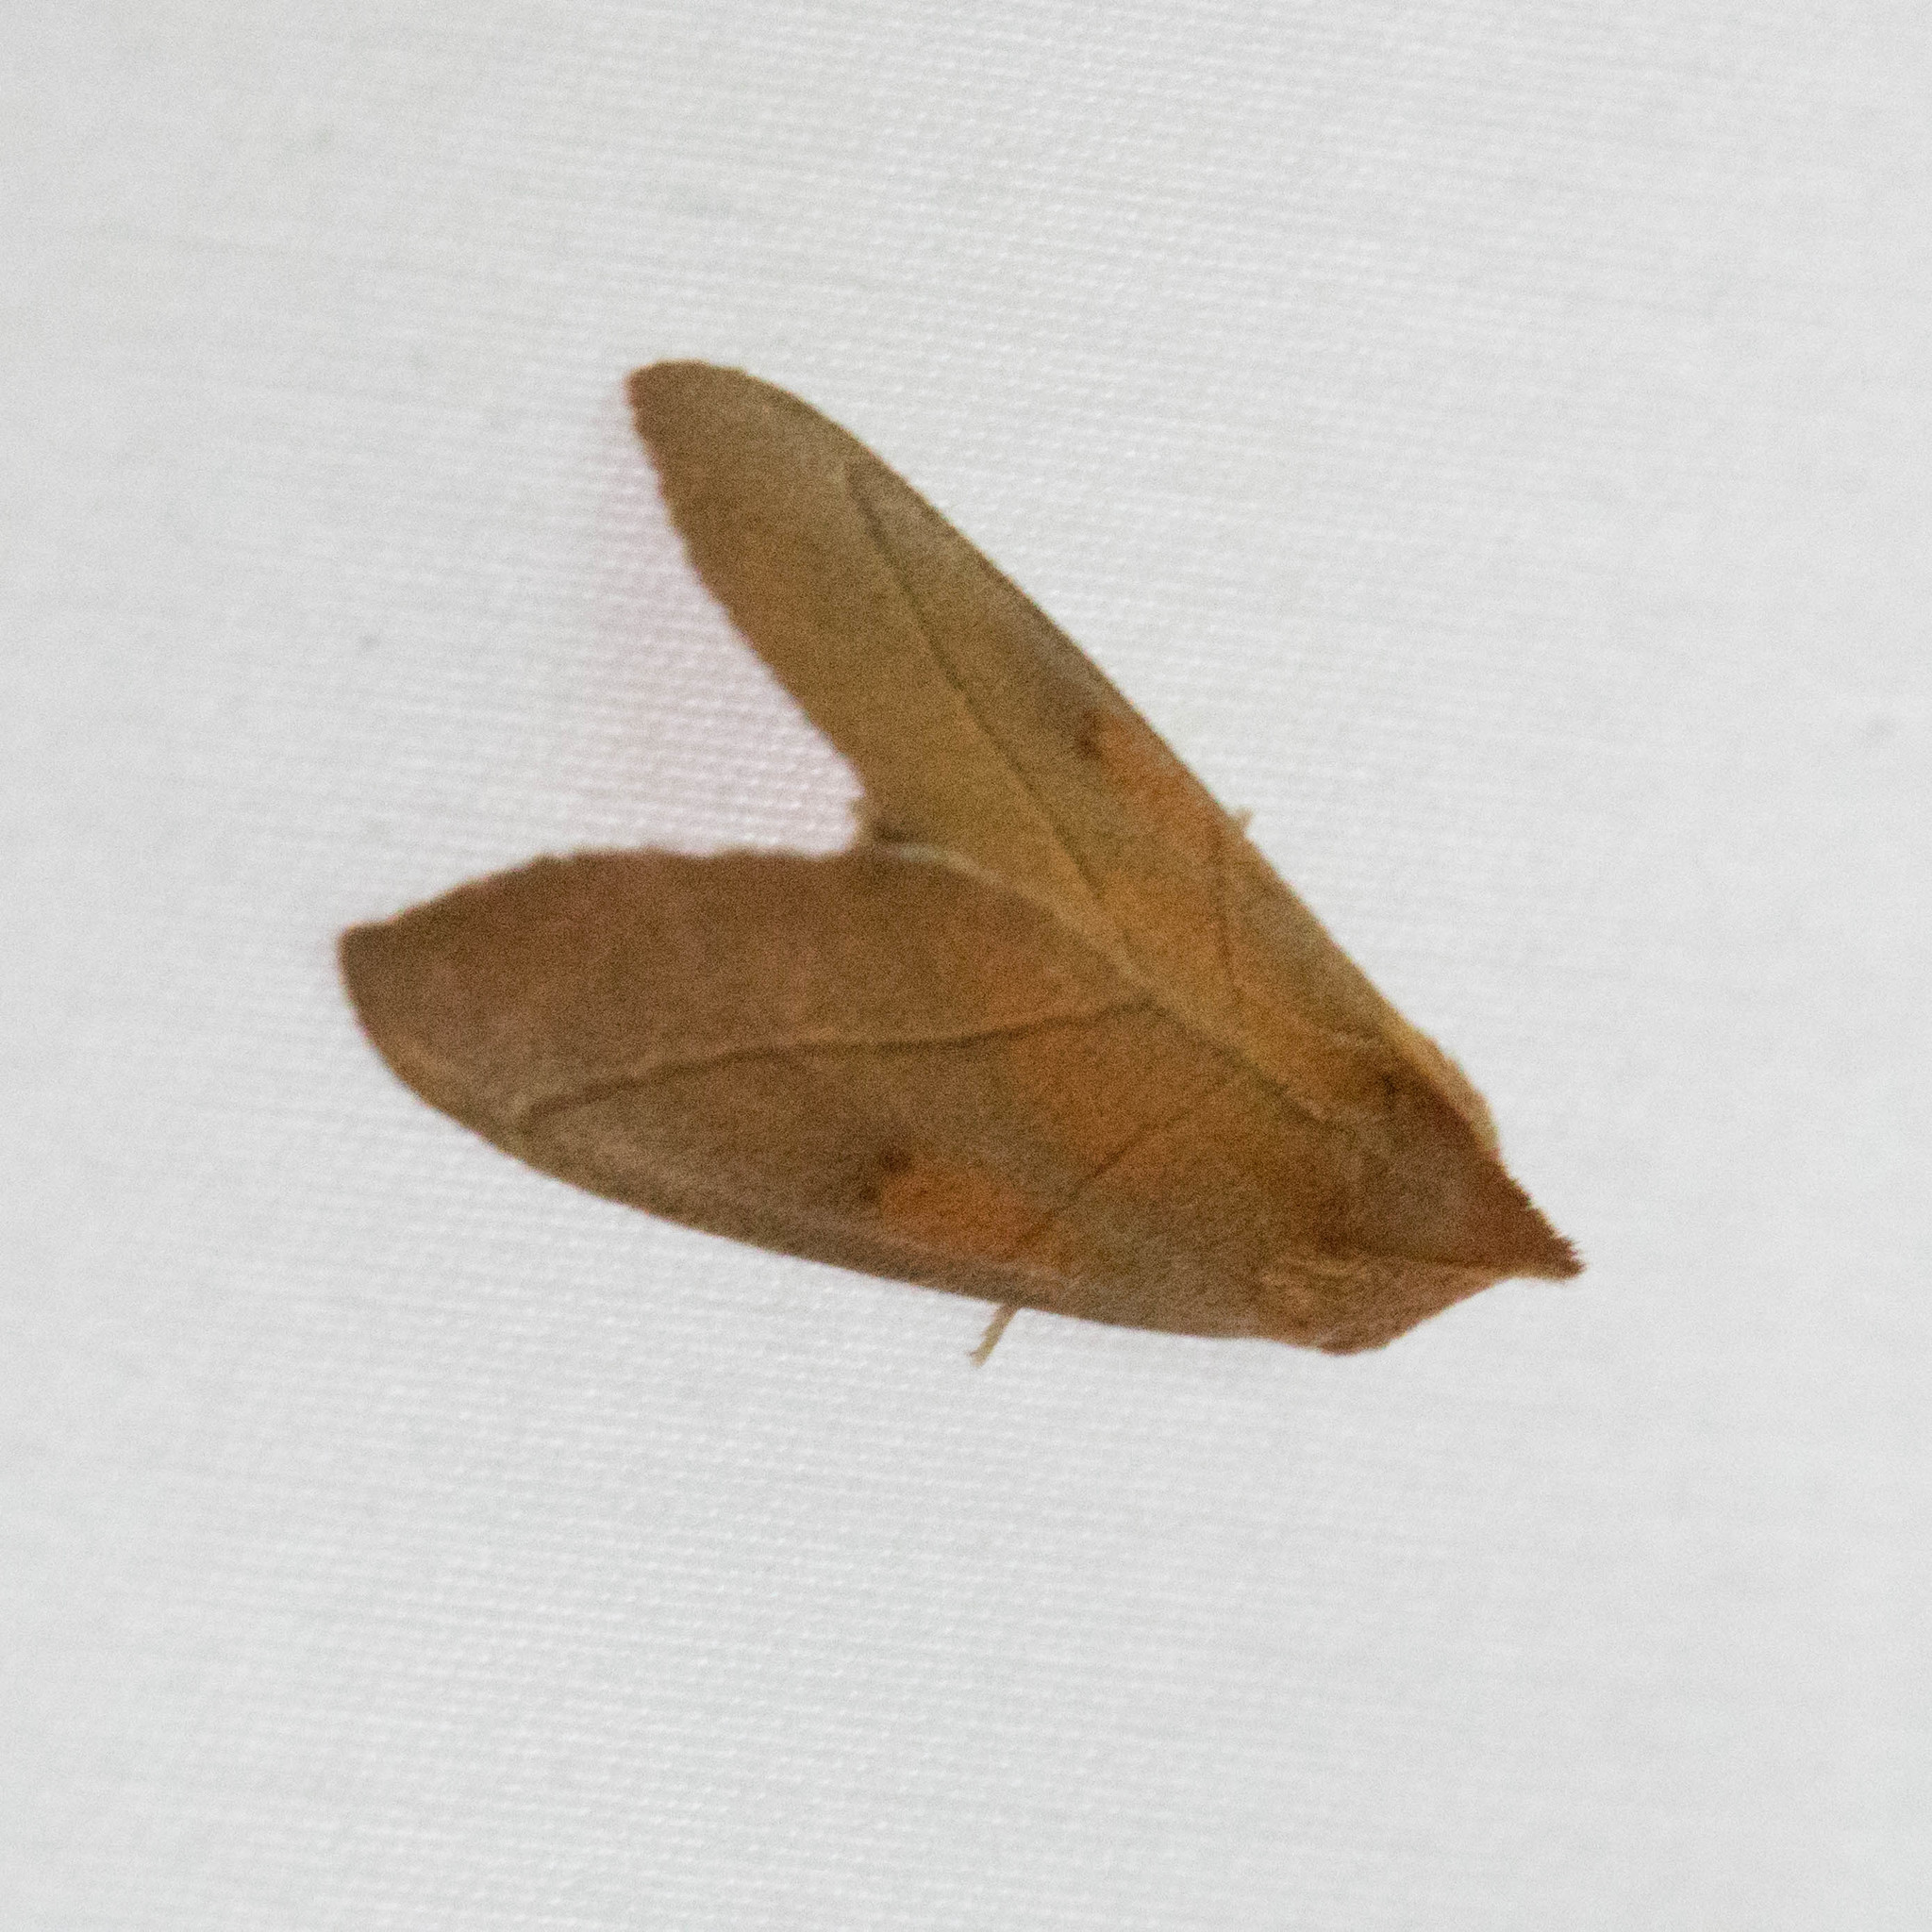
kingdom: Animalia
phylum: Arthropoda
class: Insecta
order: Lepidoptera
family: Notodontidae
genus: Nadata
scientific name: Nadata gibbosa
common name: White-dotted prominent
